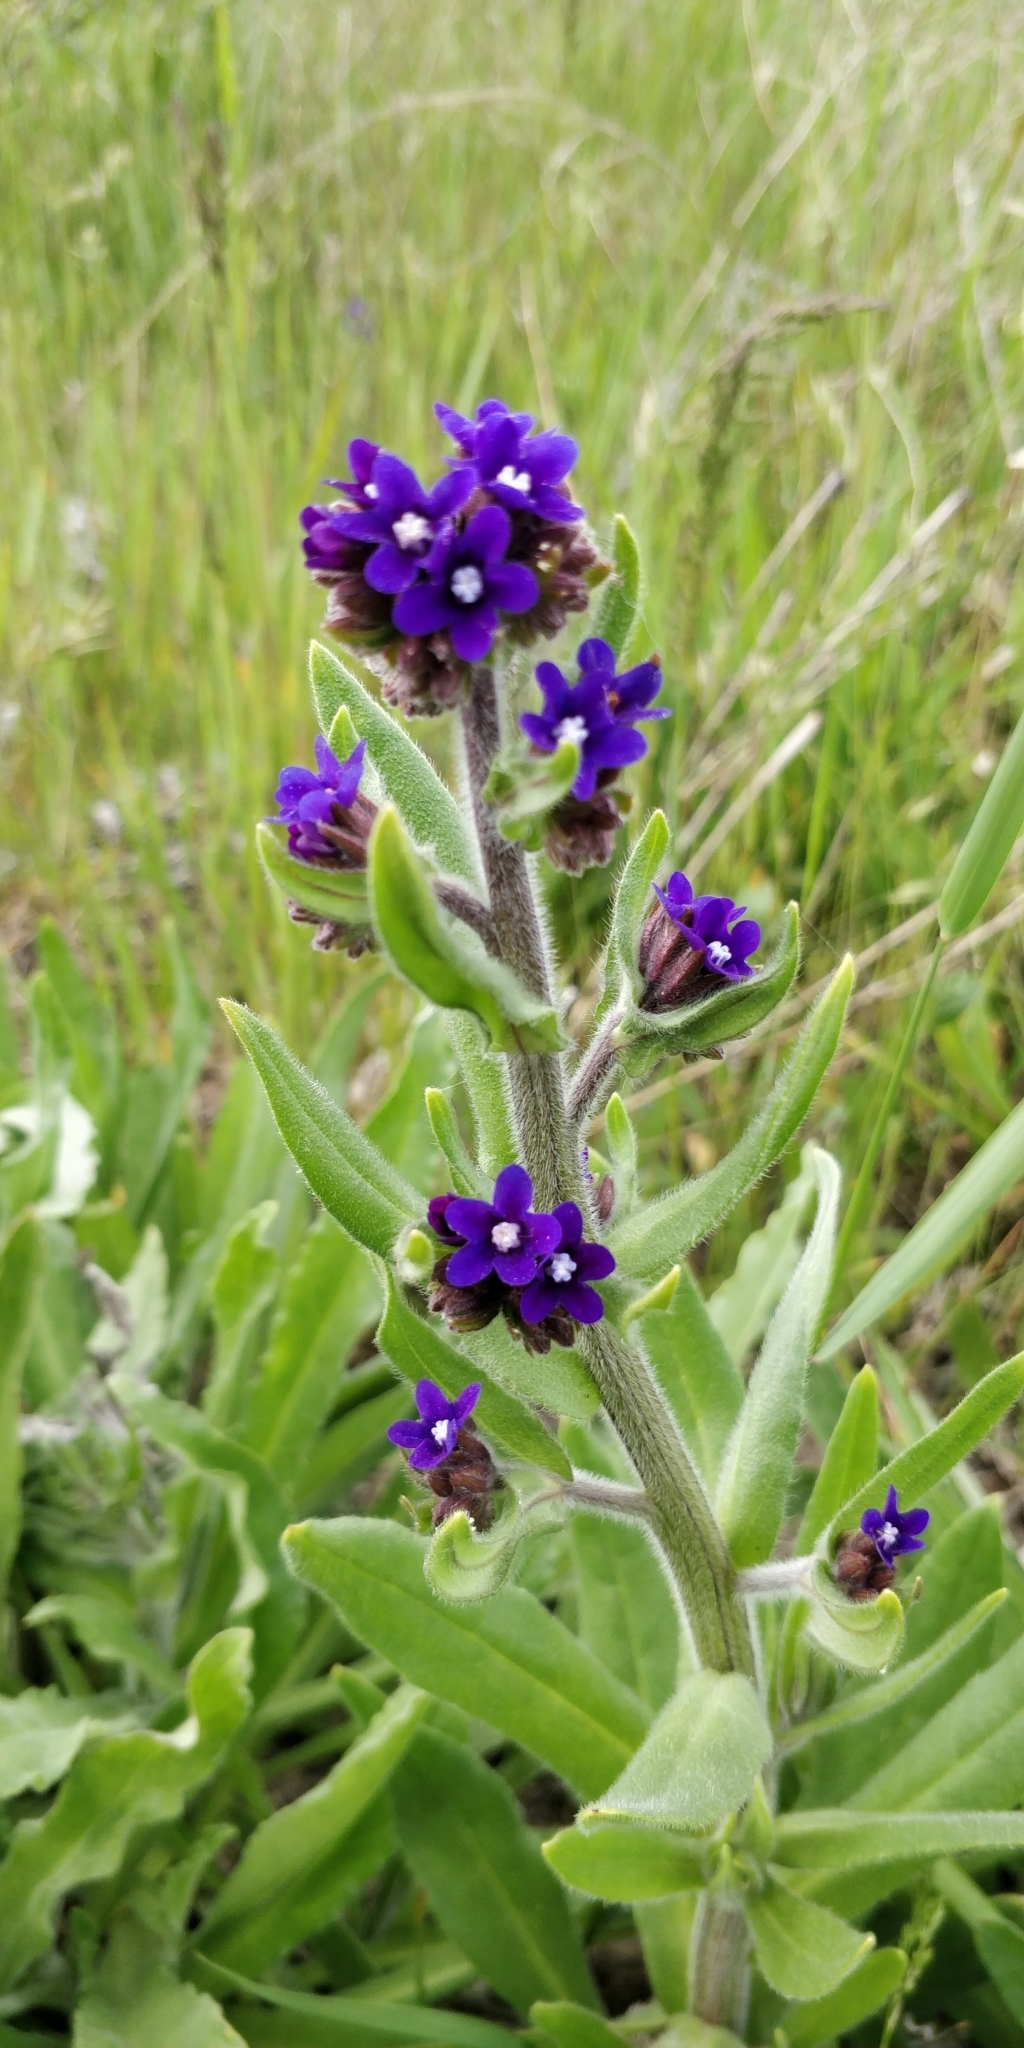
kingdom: Plantae
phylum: Tracheophyta
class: Magnoliopsida
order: Boraginales
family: Boraginaceae
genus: Anchusa
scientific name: Anchusa officinalis
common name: Alkanet
